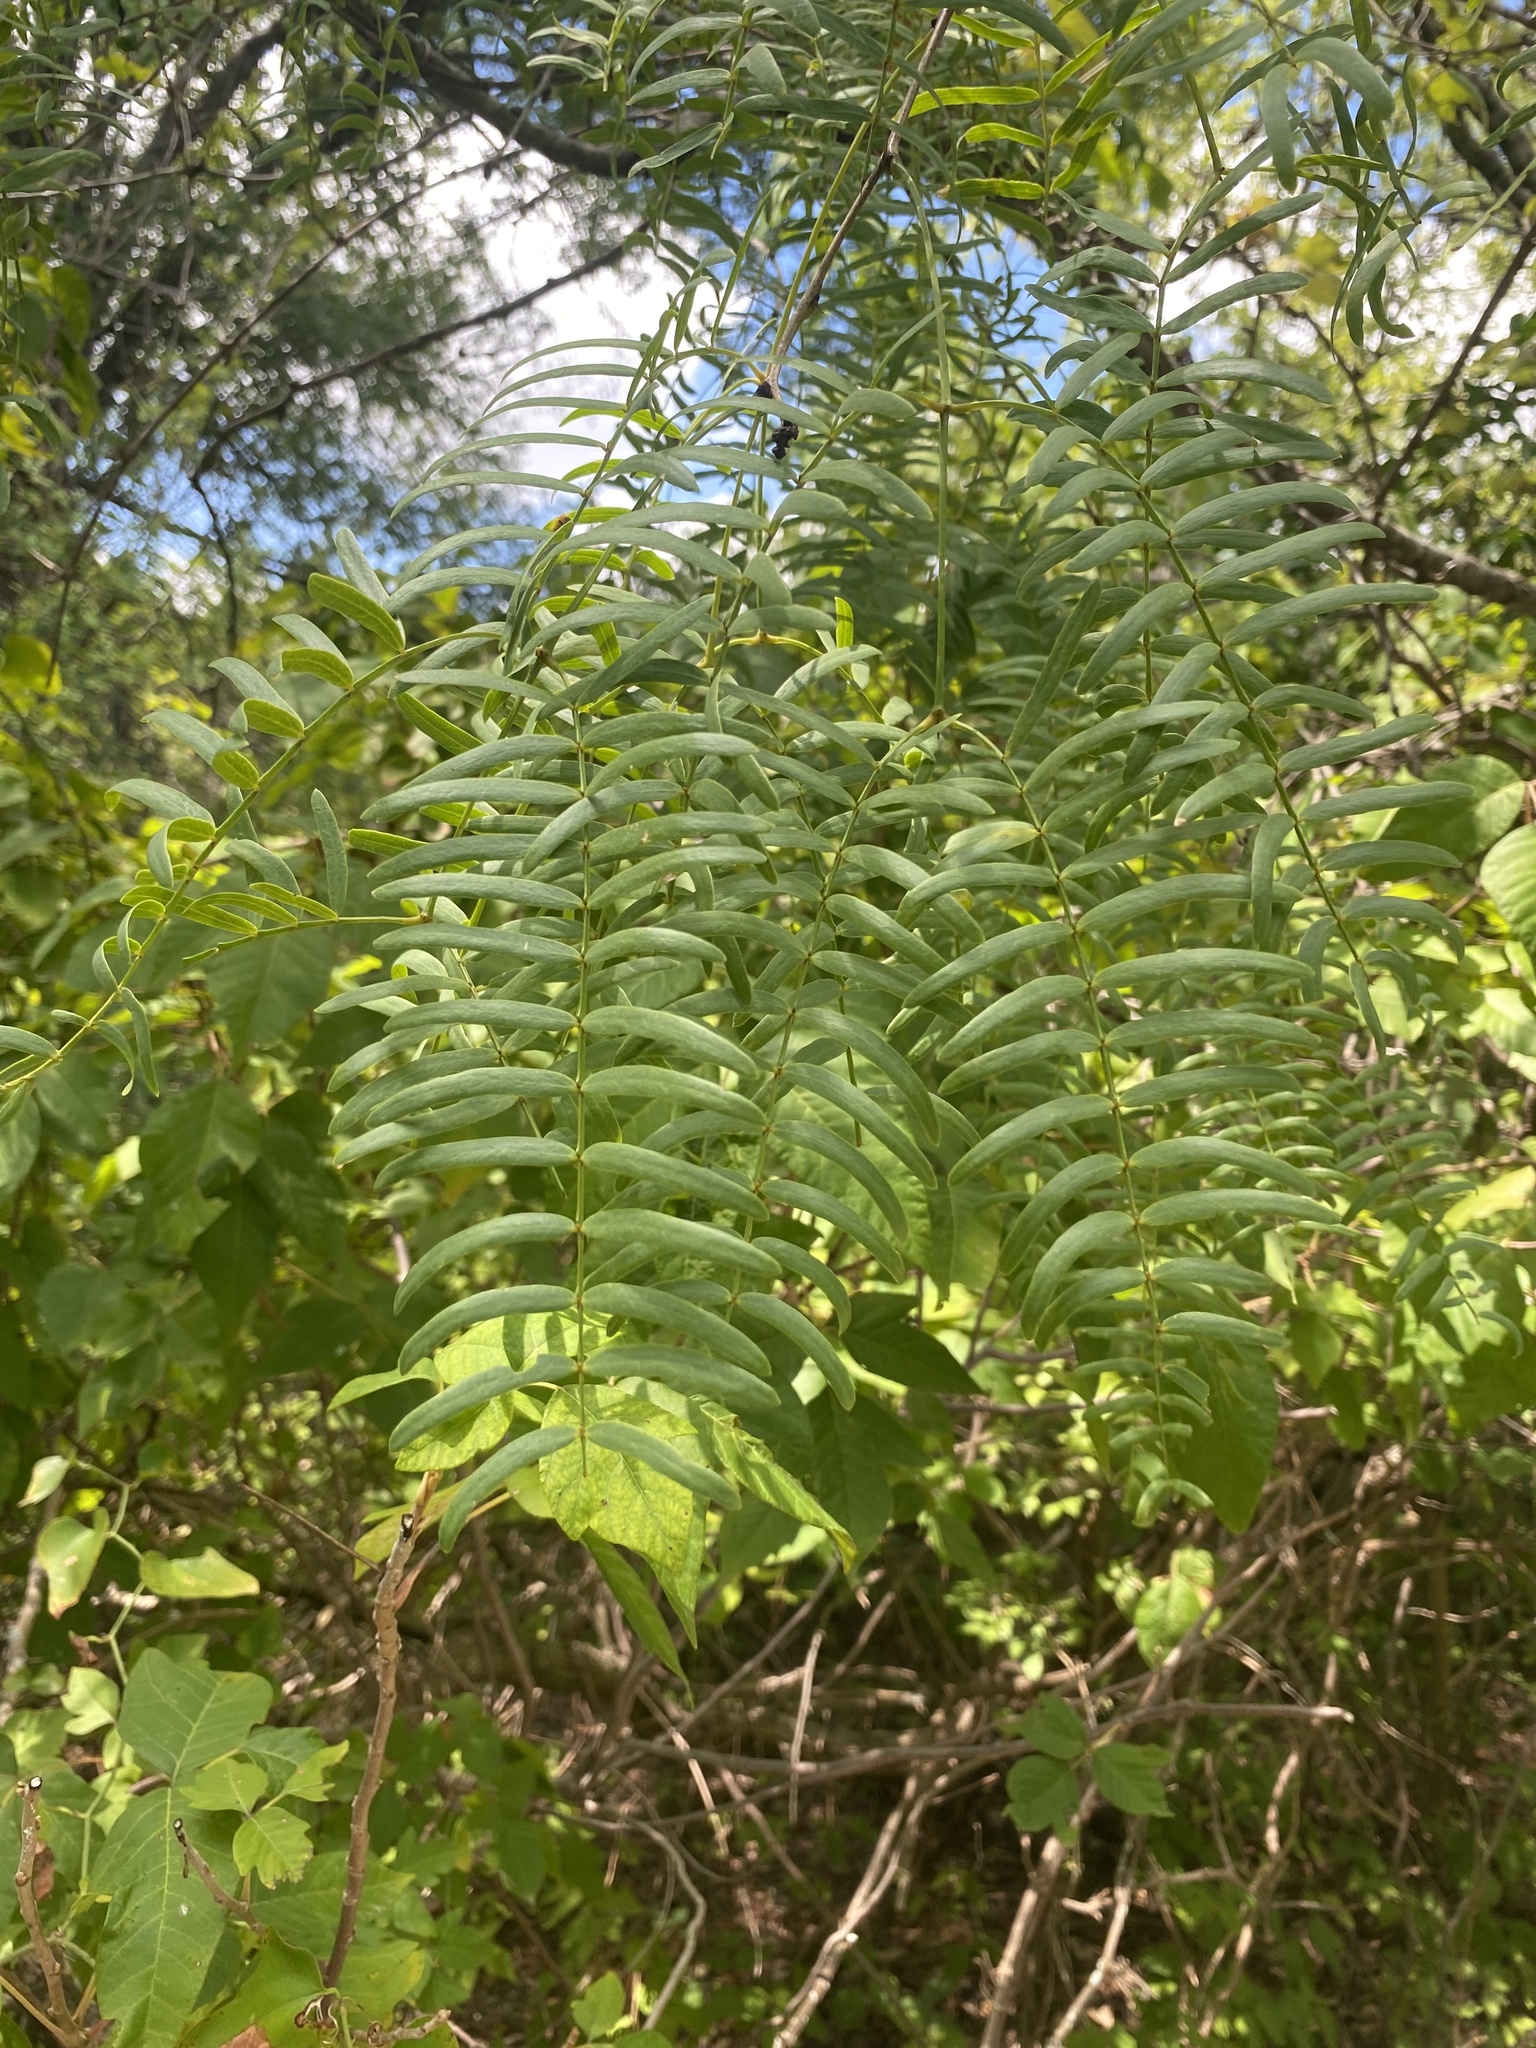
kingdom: Plantae
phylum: Tracheophyta
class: Magnoliopsida
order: Fabales
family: Fabaceae
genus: Prosopis
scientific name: Prosopis glandulosa
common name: Honey mesquite
